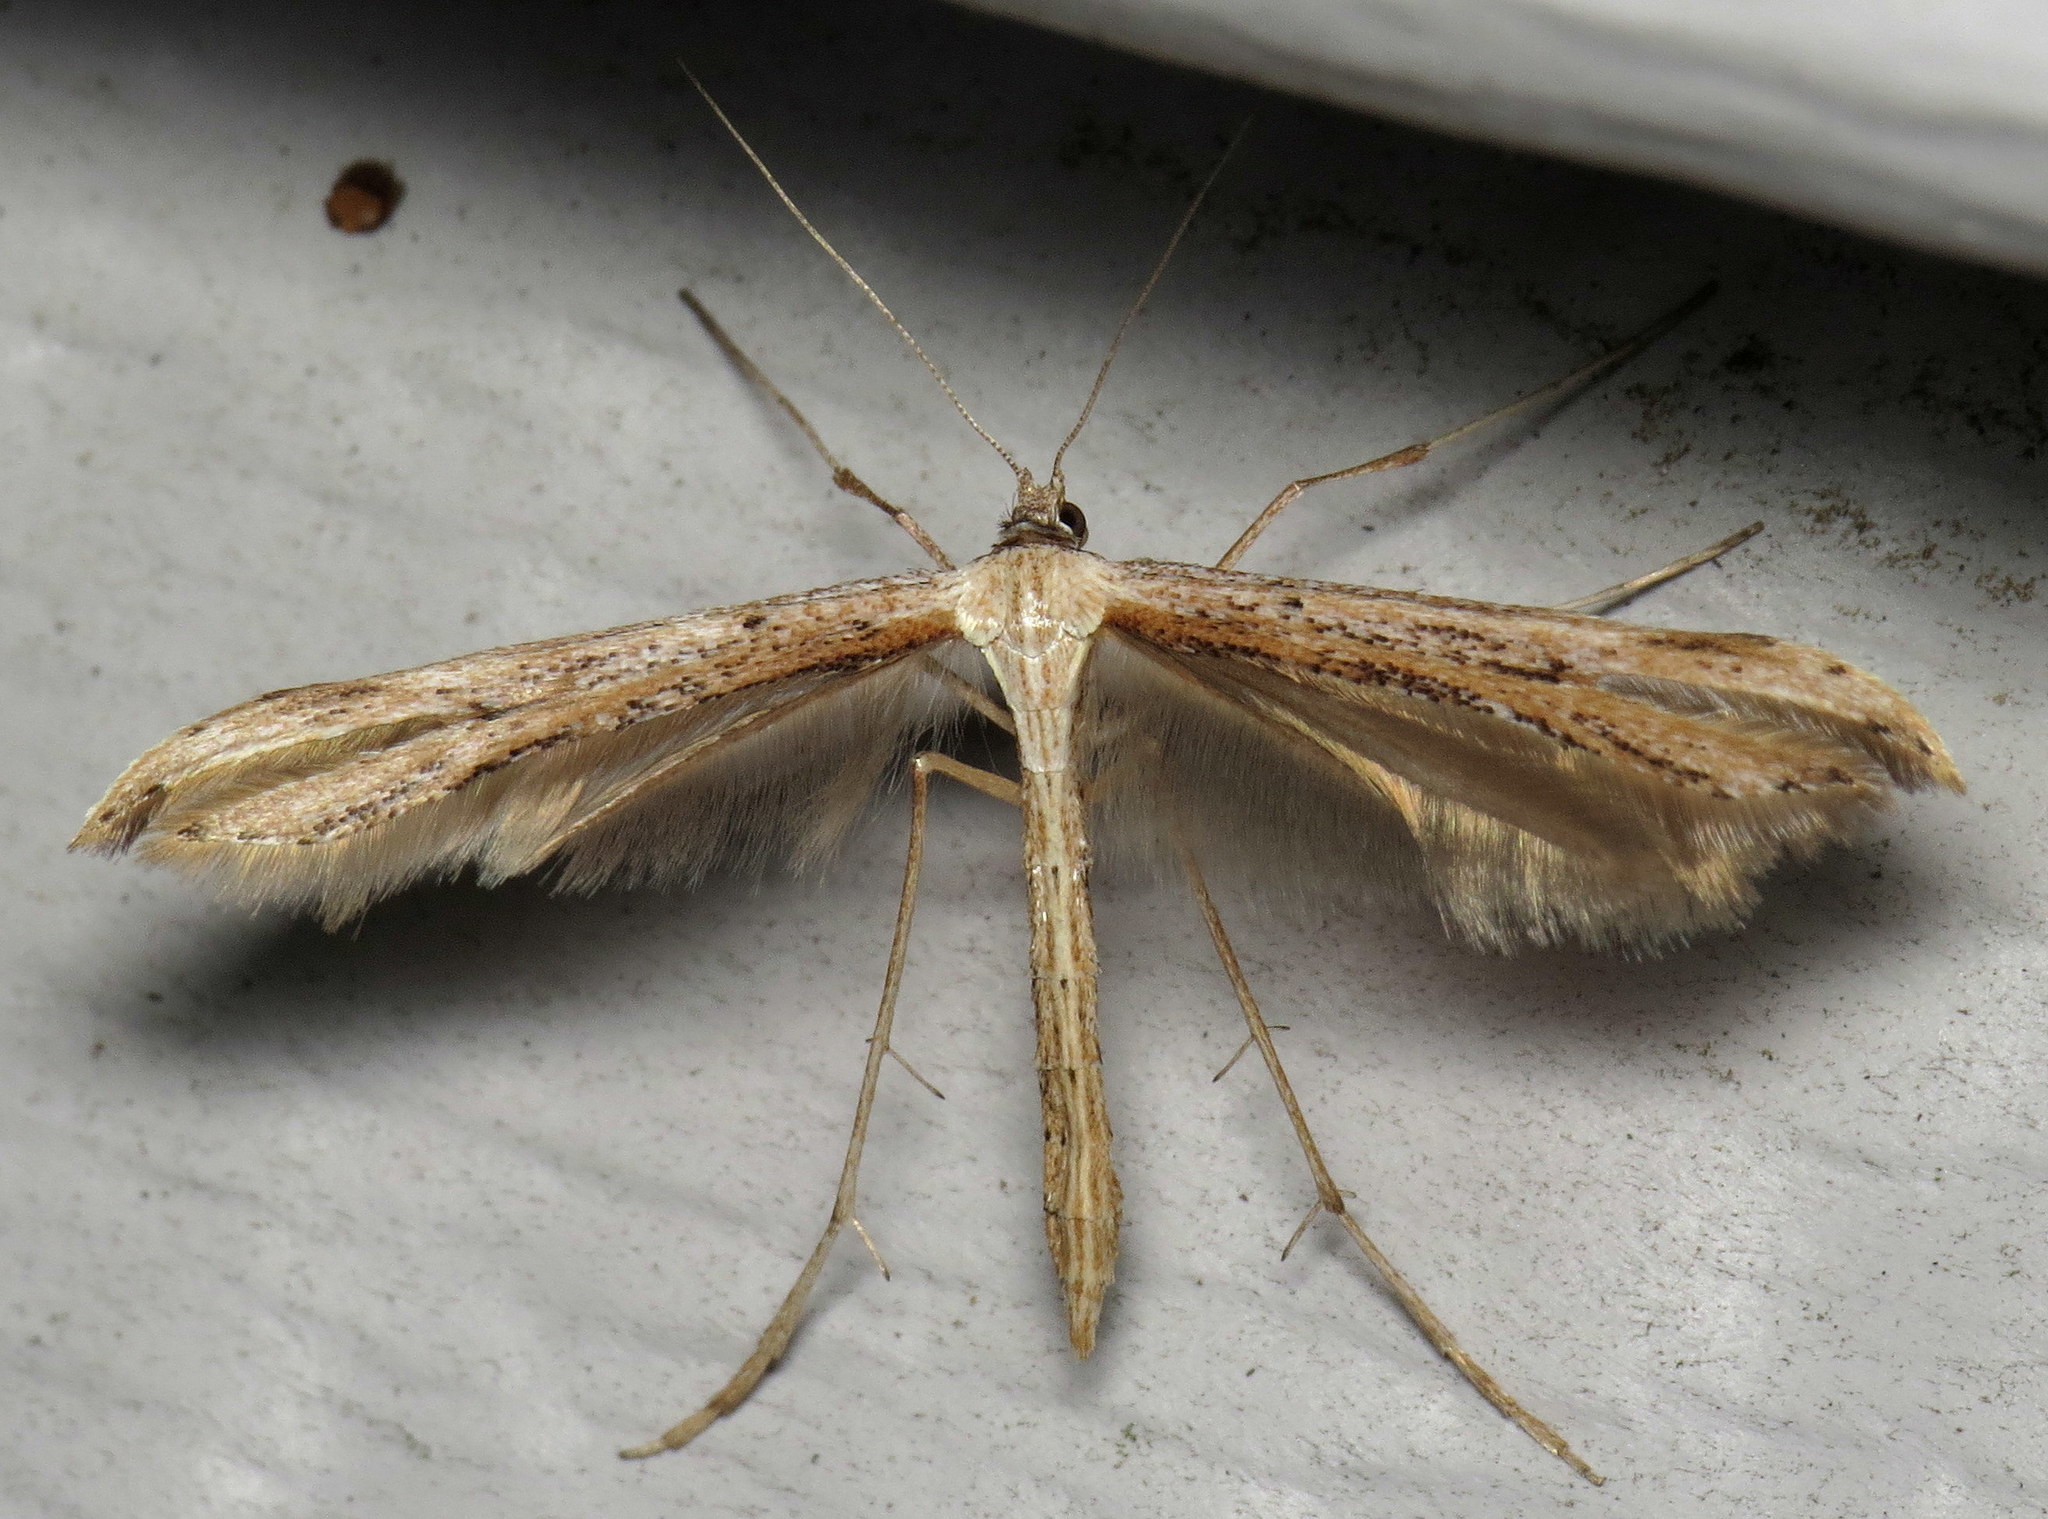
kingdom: Animalia
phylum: Arthropoda
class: Insecta
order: Lepidoptera
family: Pterophoridae
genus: Emmelina
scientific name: Emmelina monodactyla
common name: Common plume
